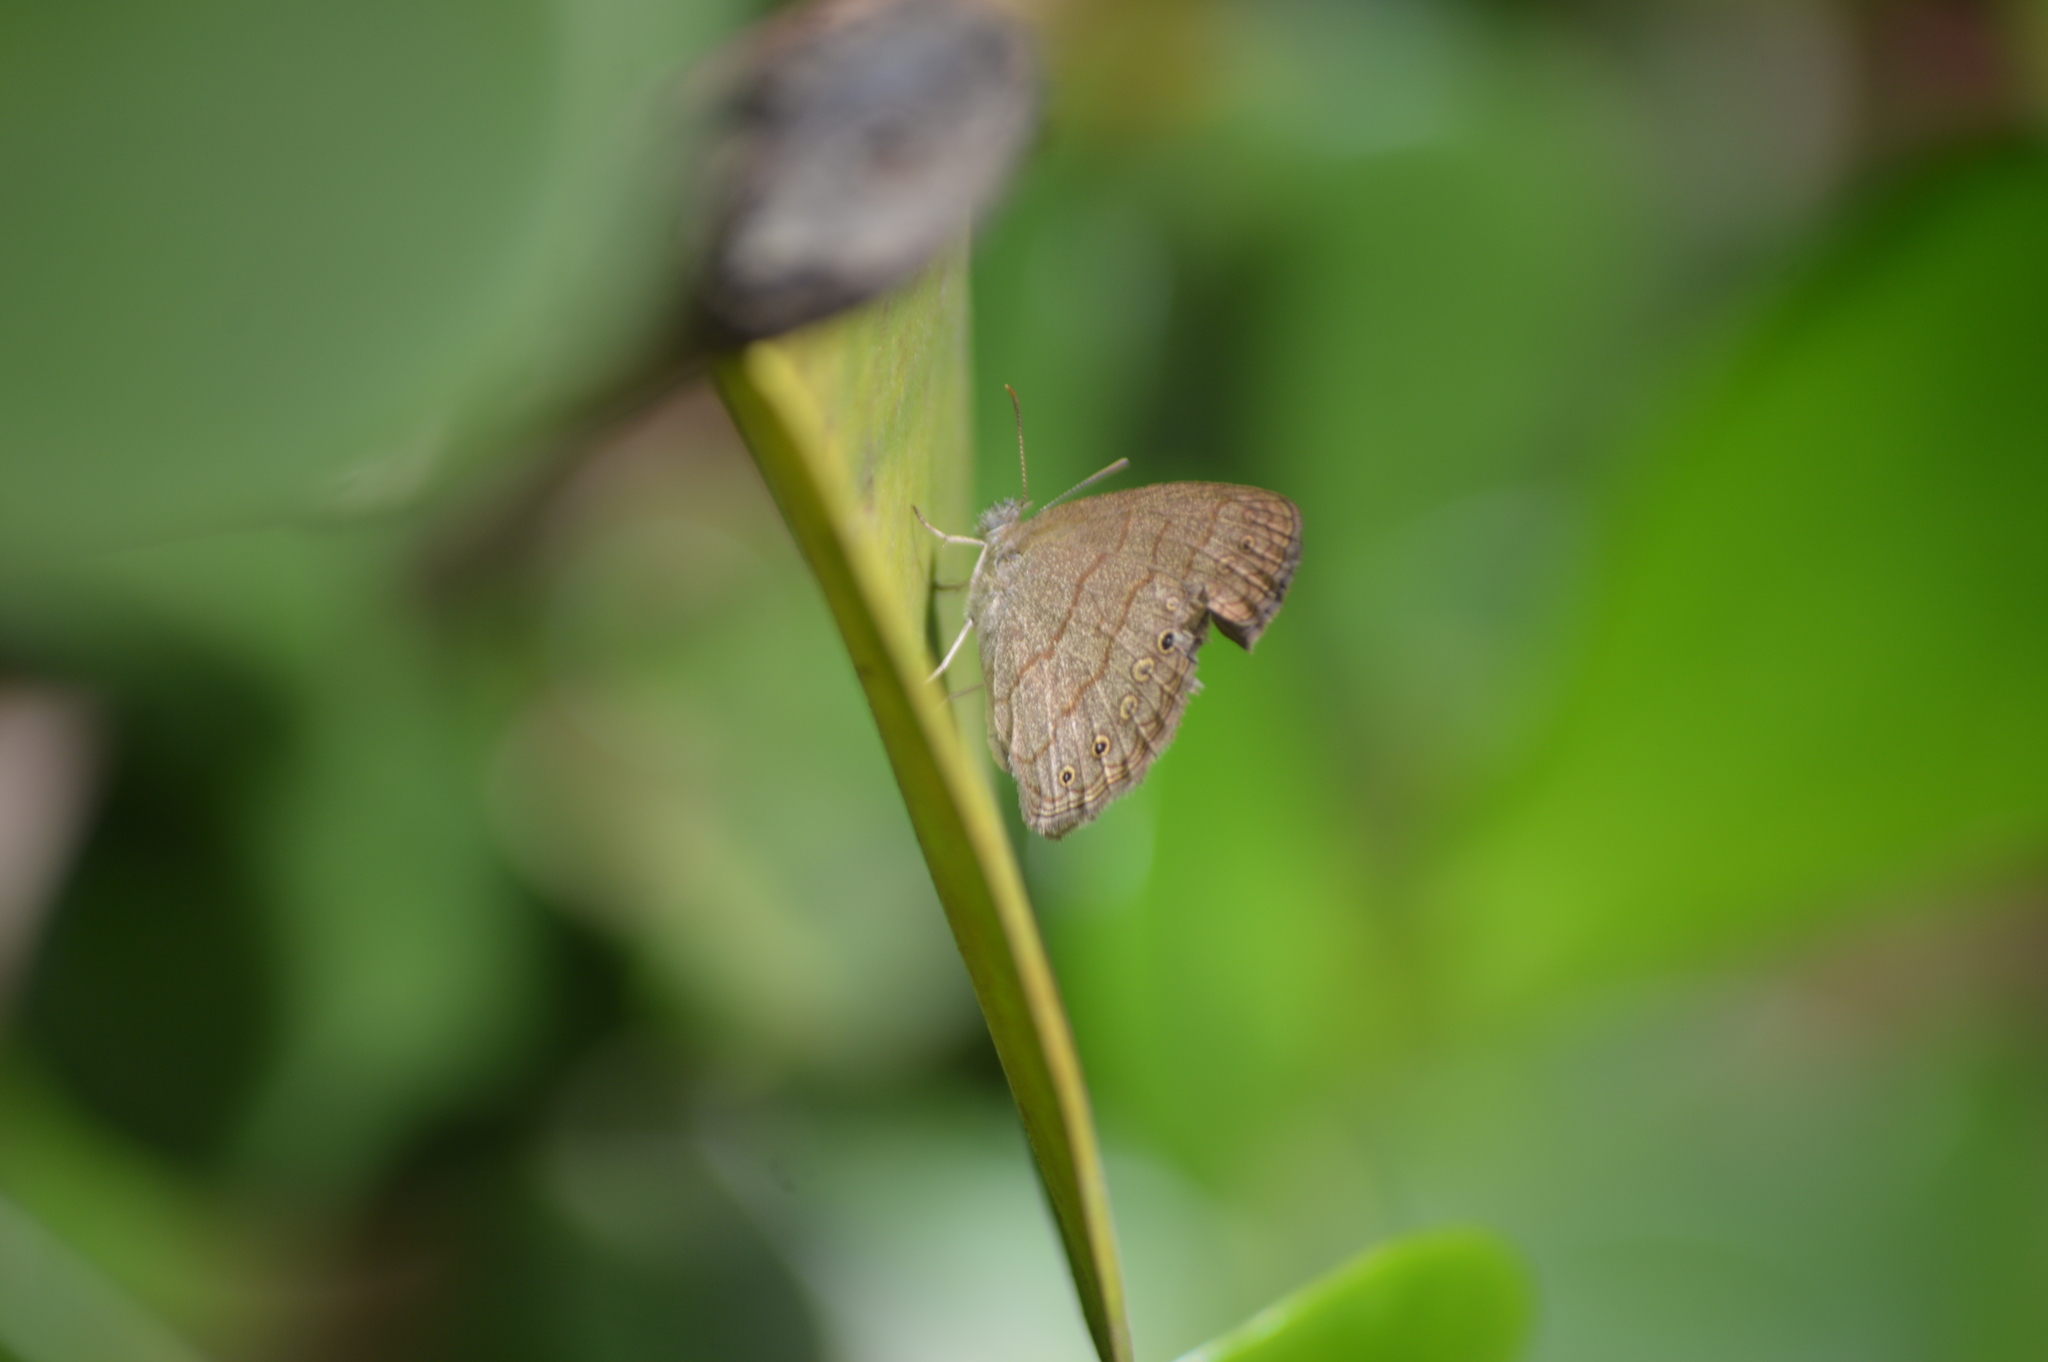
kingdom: Animalia
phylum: Arthropoda
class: Insecta
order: Lepidoptera
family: Nymphalidae
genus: Hermeuptychia
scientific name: Hermeuptychia hermes
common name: Hermes satyr
